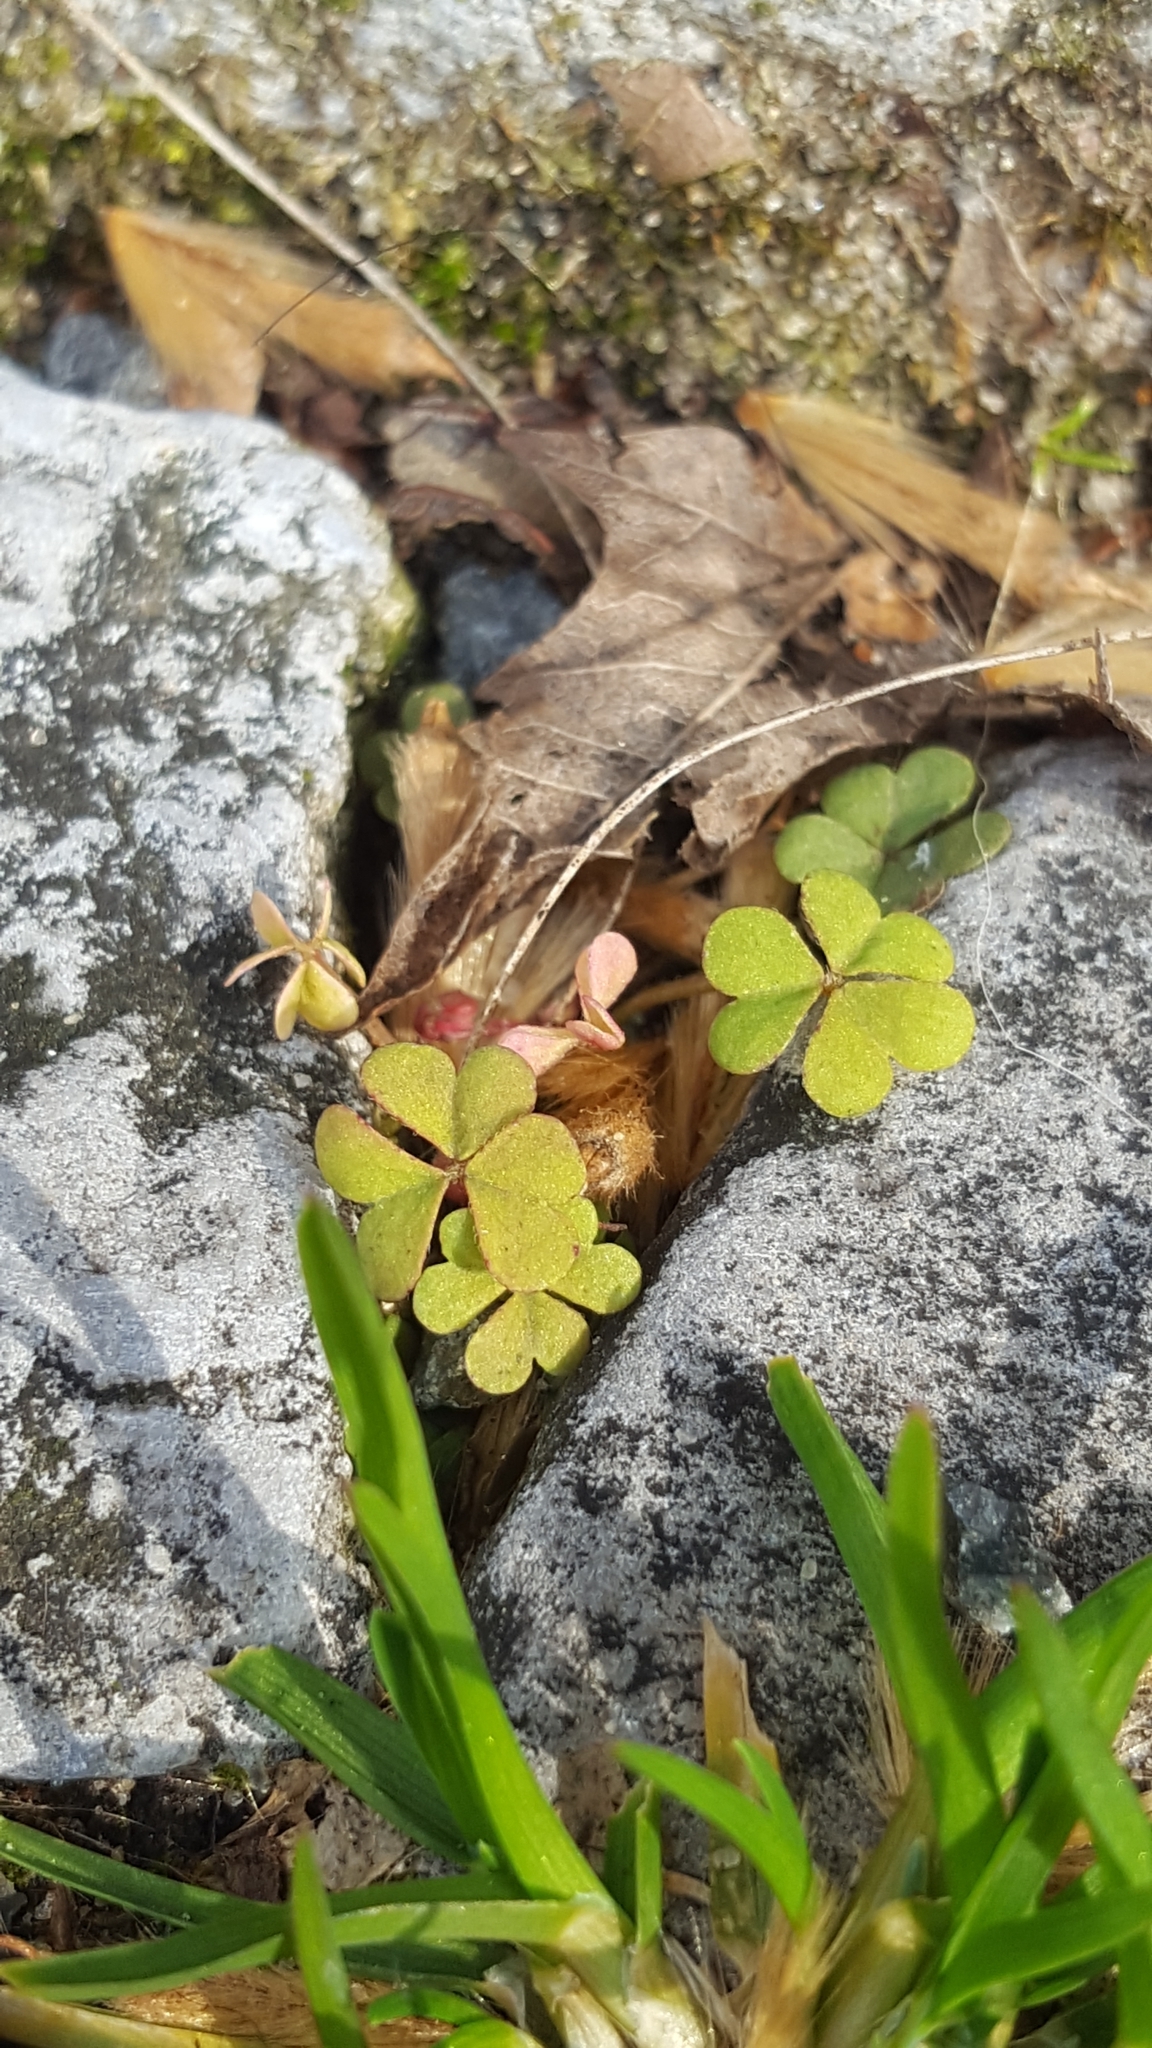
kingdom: Plantae
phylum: Tracheophyta
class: Magnoliopsida
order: Oxalidales
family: Oxalidaceae
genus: Oxalis
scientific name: Oxalis corniculata
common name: Procumbent yellow-sorrel
